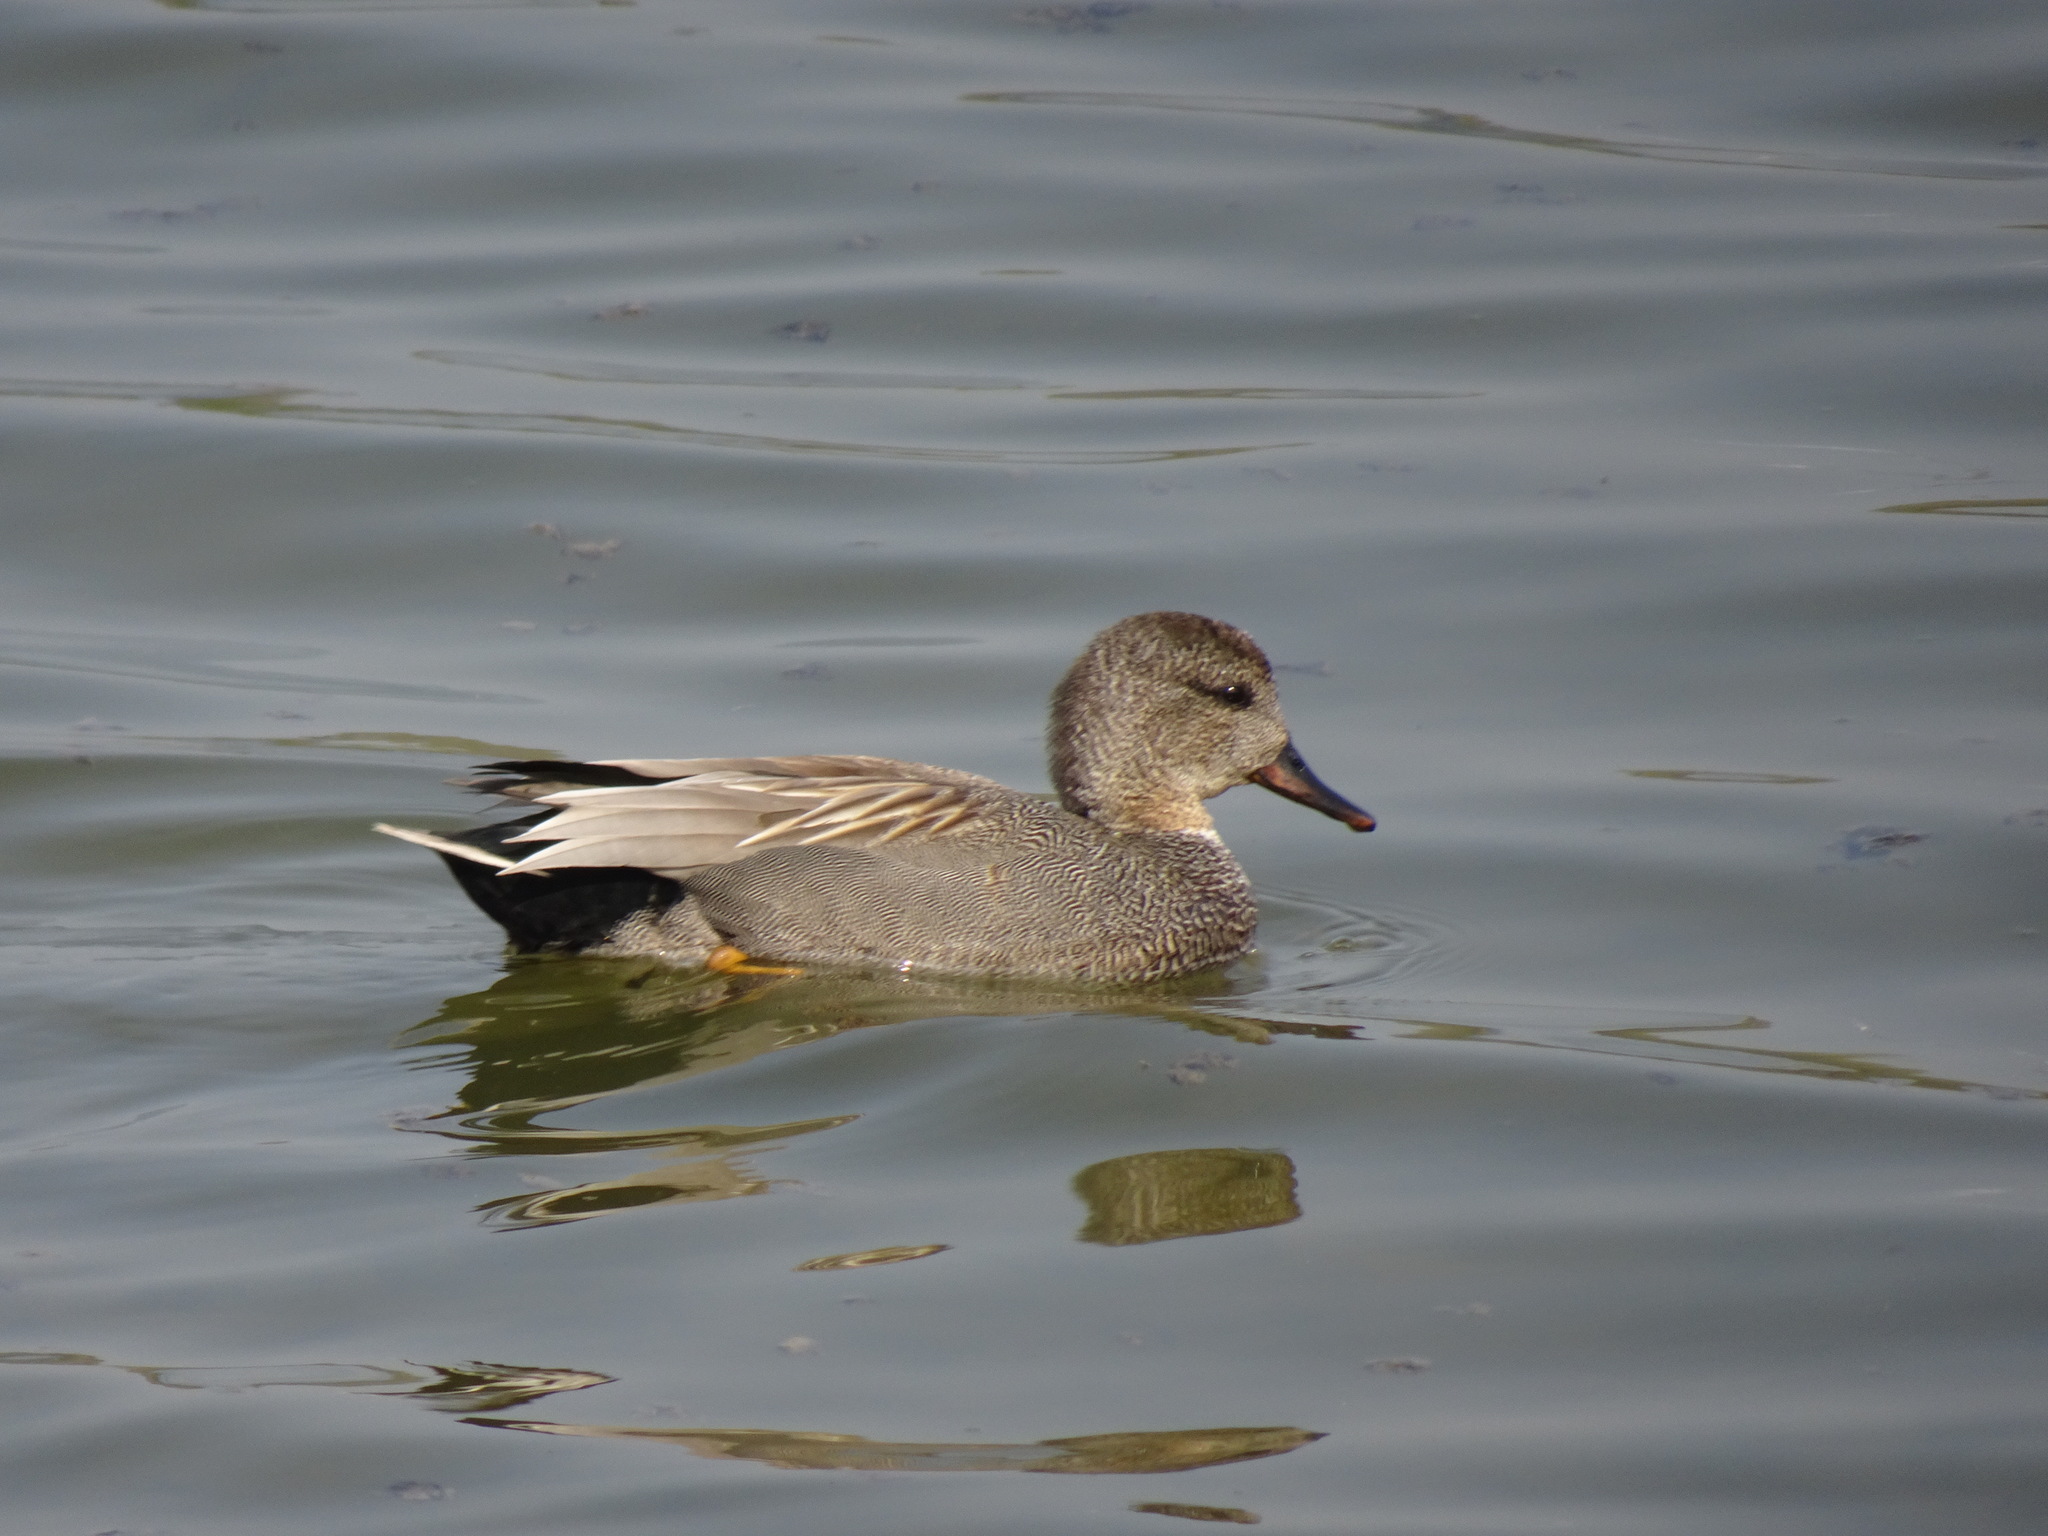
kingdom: Animalia
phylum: Chordata
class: Aves
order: Anseriformes
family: Anatidae
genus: Mareca
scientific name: Mareca strepera
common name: Gadwall
